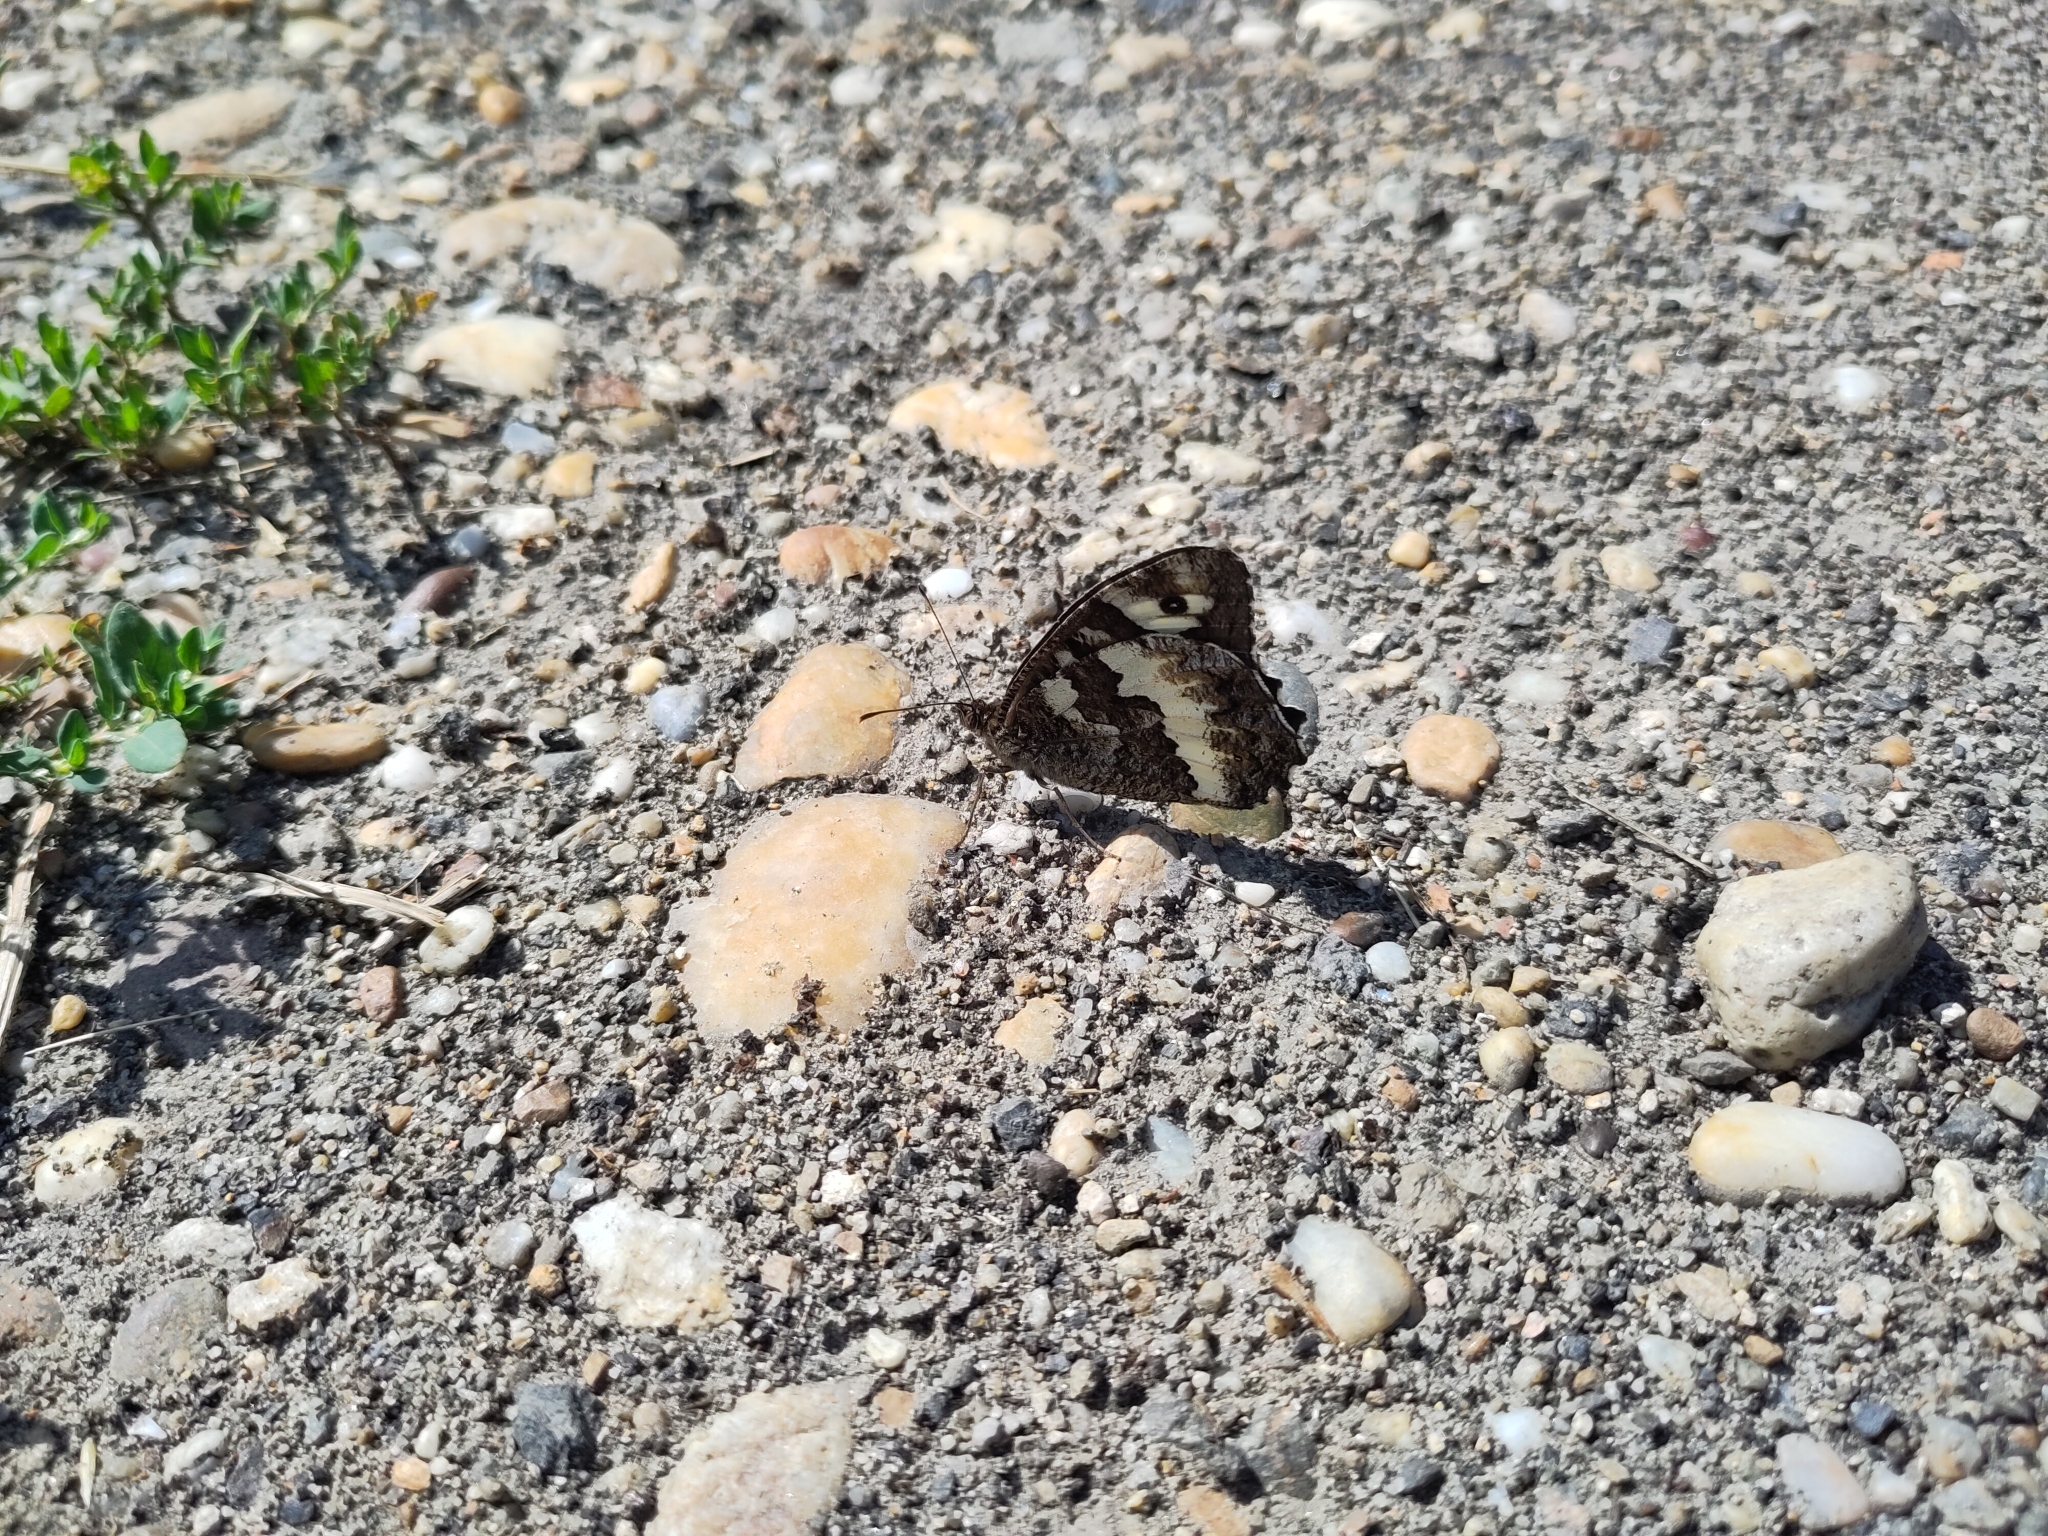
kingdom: Animalia
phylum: Arthropoda
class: Insecta
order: Lepidoptera
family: Lycaenidae
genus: Loweia
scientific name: Loweia tityrus
